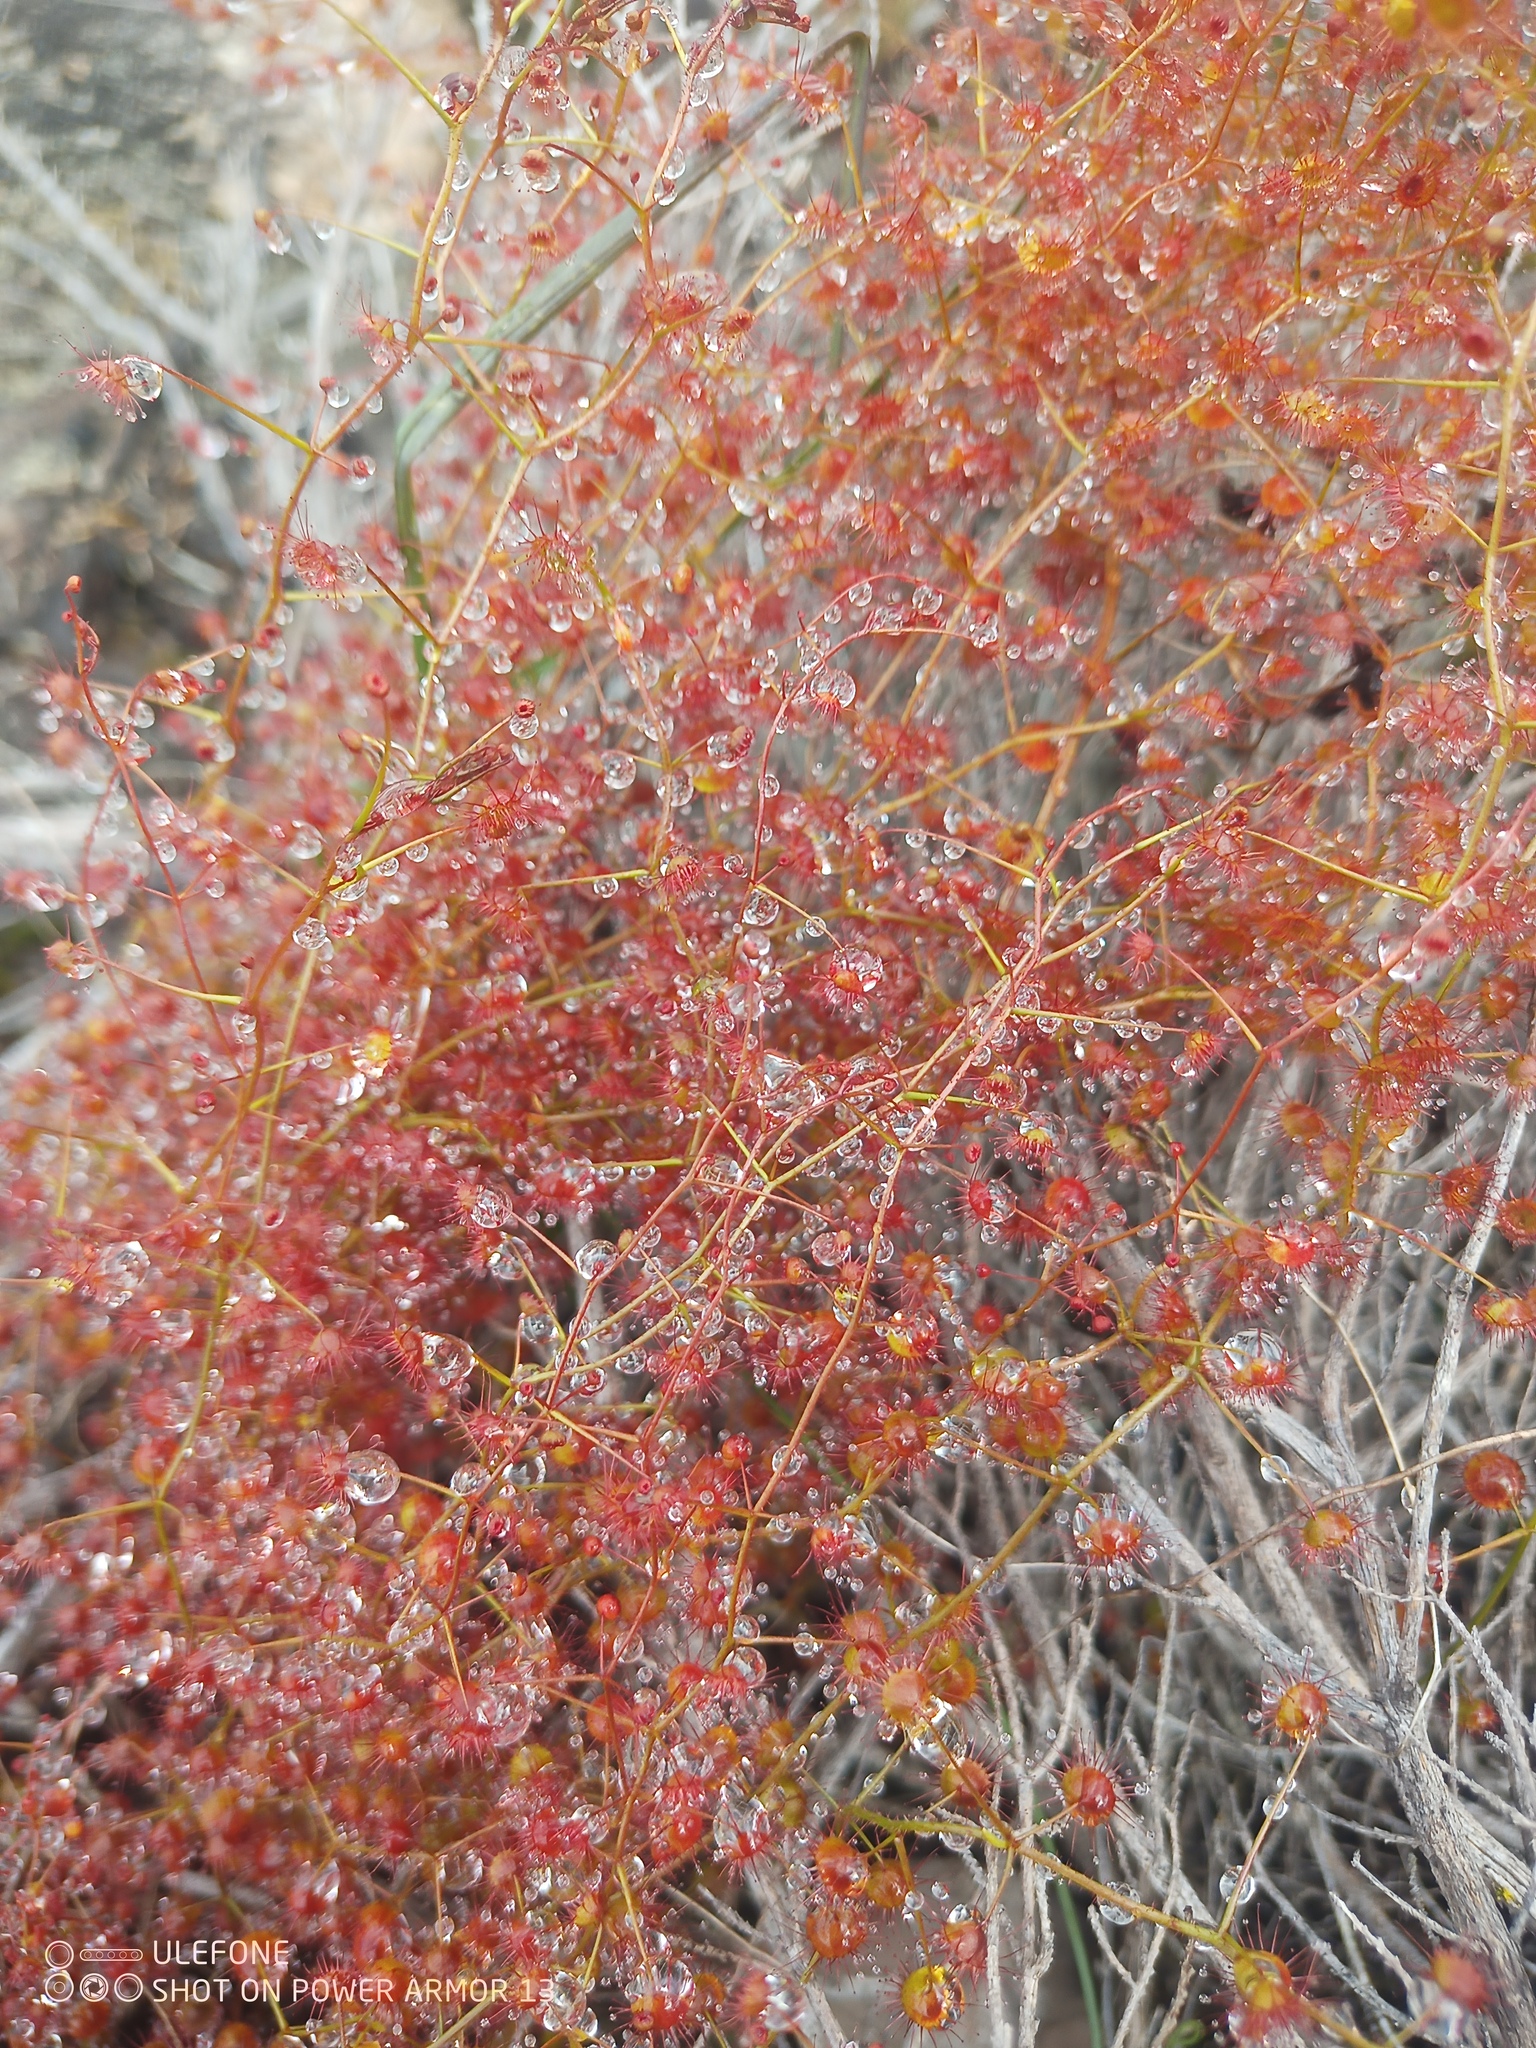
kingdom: Plantae
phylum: Tracheophyta
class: Magnoliopsida
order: Caryophyllales
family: Droseraceae
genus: Drosera
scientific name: Drosera macrantha
